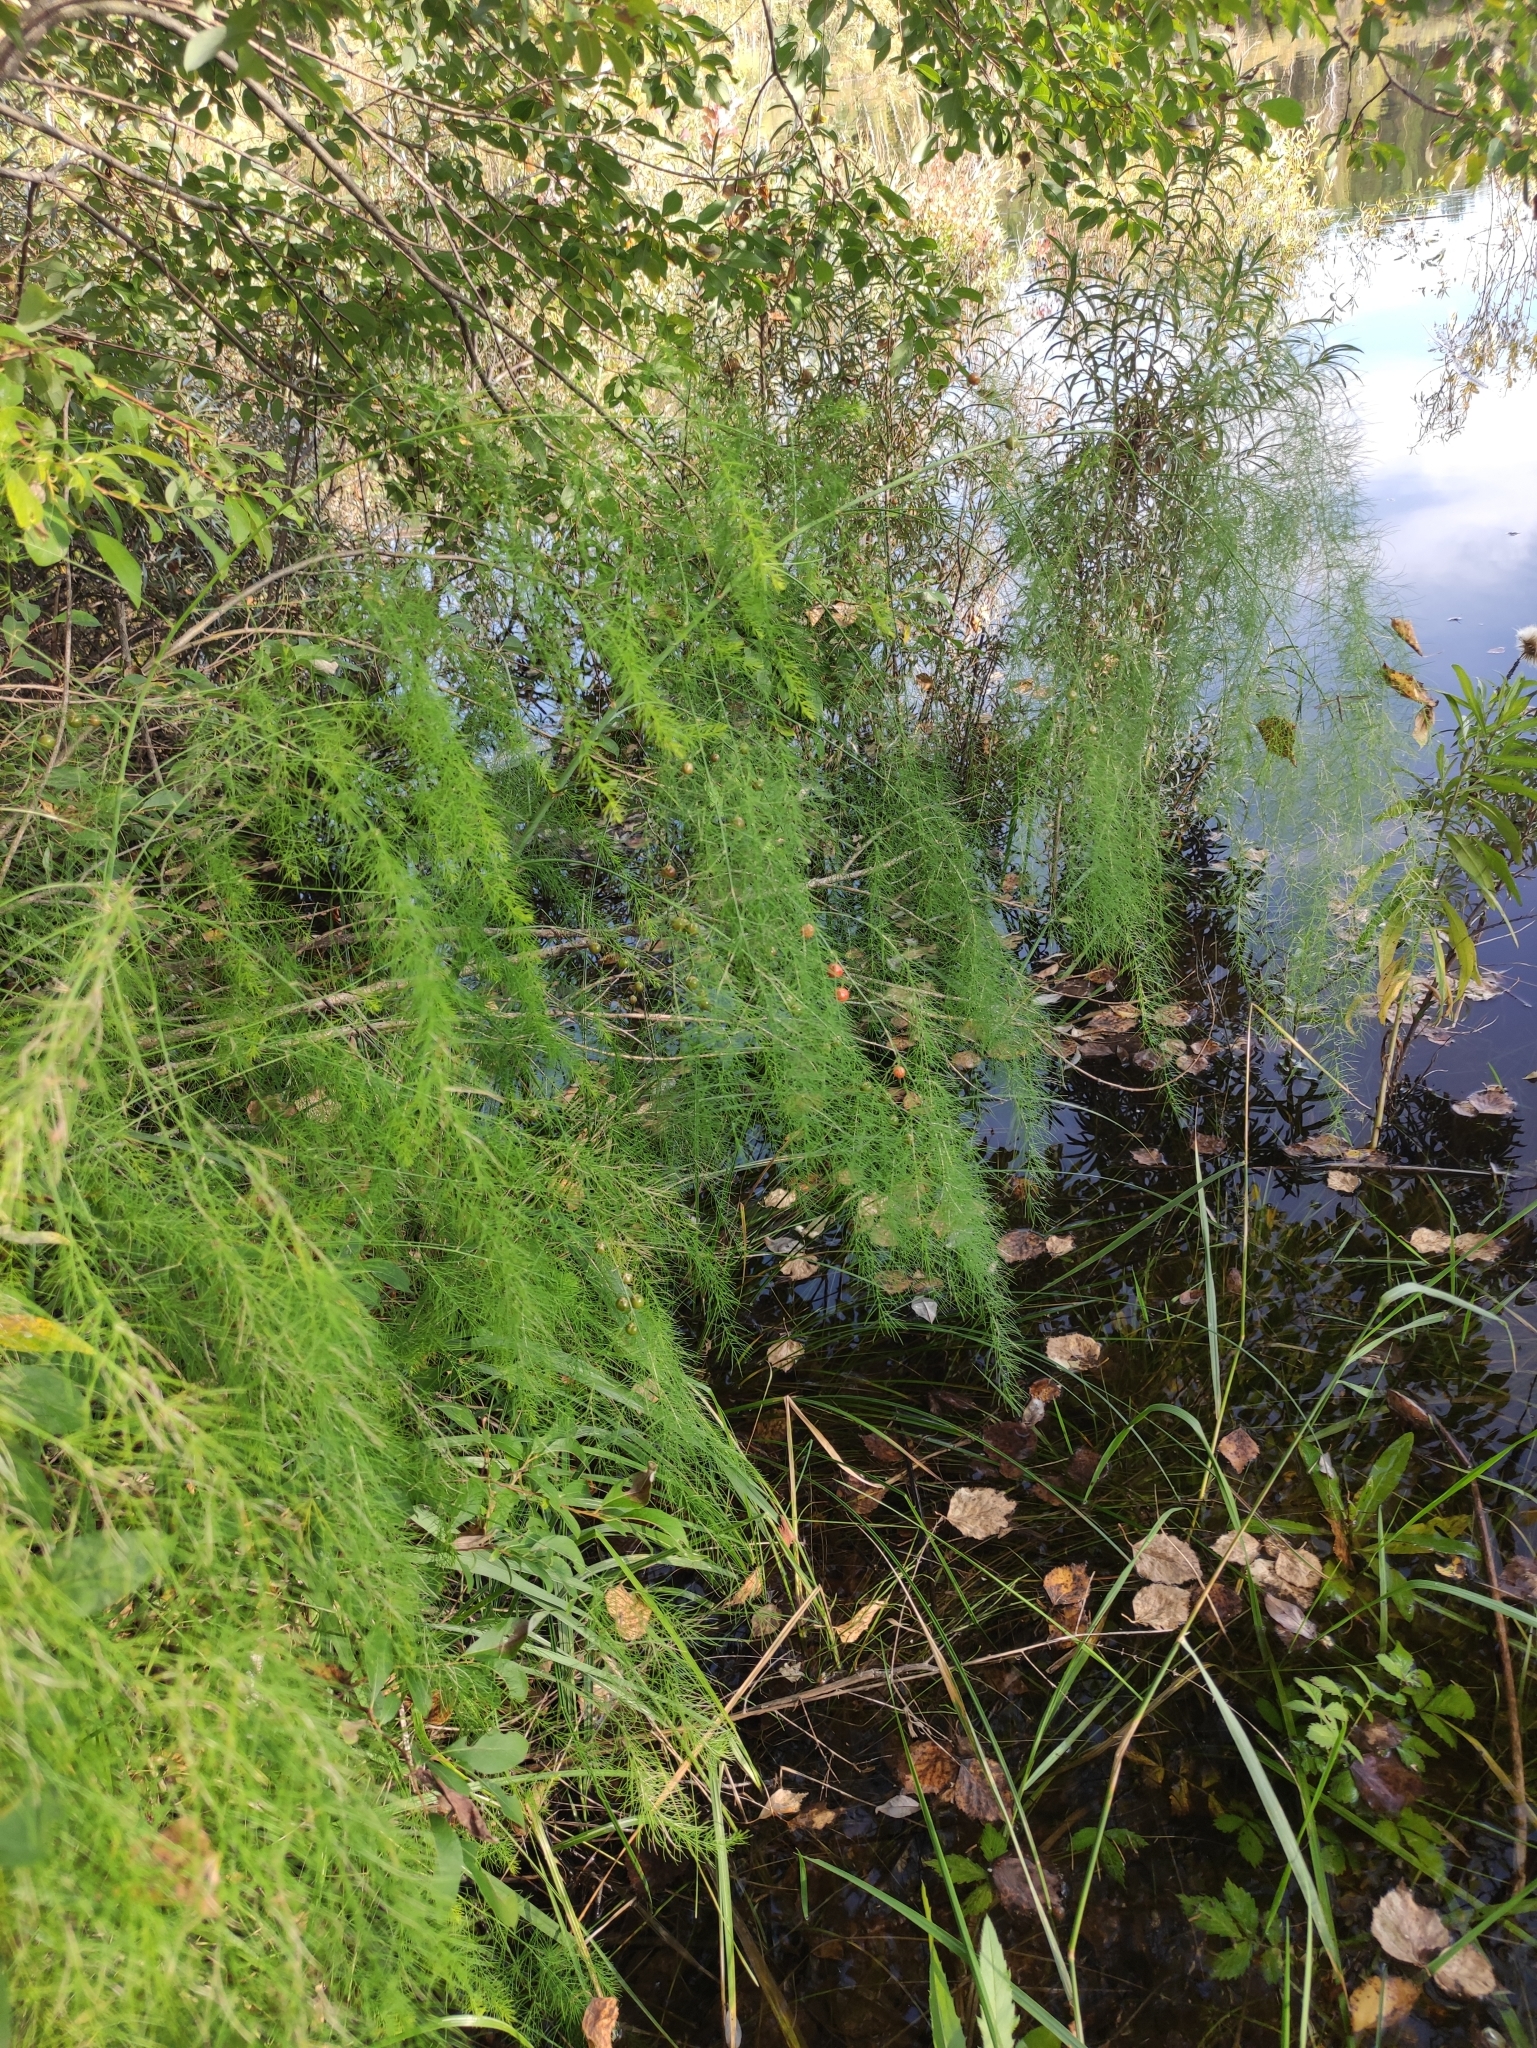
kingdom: Plantae
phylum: Tracheophyta
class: Liliopsida
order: Asparagales
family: Asparagaceae
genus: Asparagus
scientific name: Asparagus officinalis
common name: Garden asparagus
